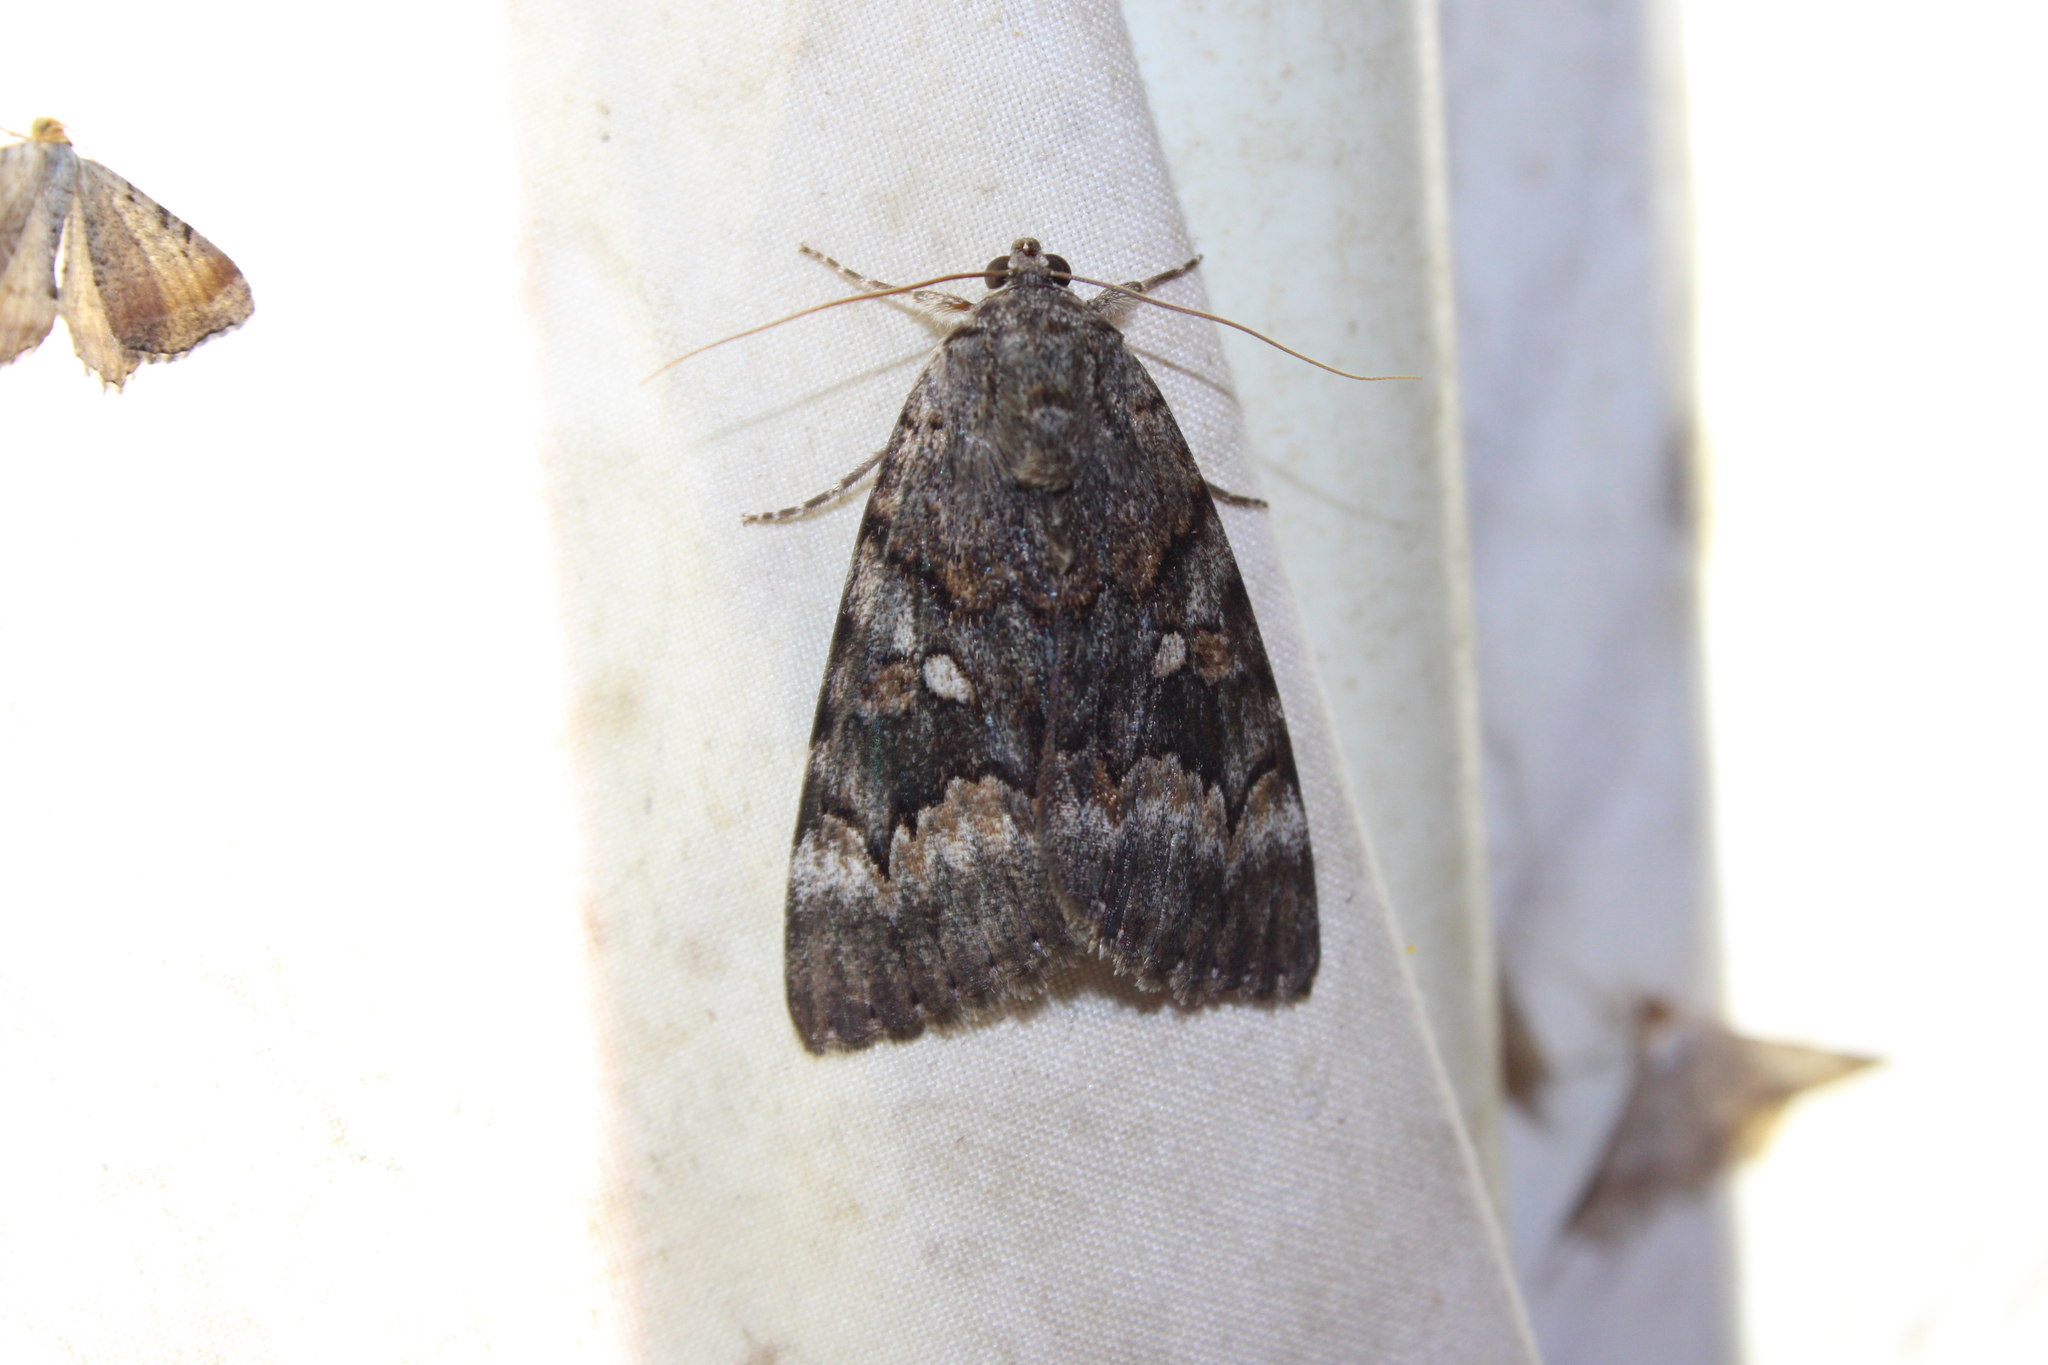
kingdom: Animalia
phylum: Arthropoda
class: Insecta
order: Lepidoptera
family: Erebidae
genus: Catocala
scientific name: Catocala epione
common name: Epione underwing
